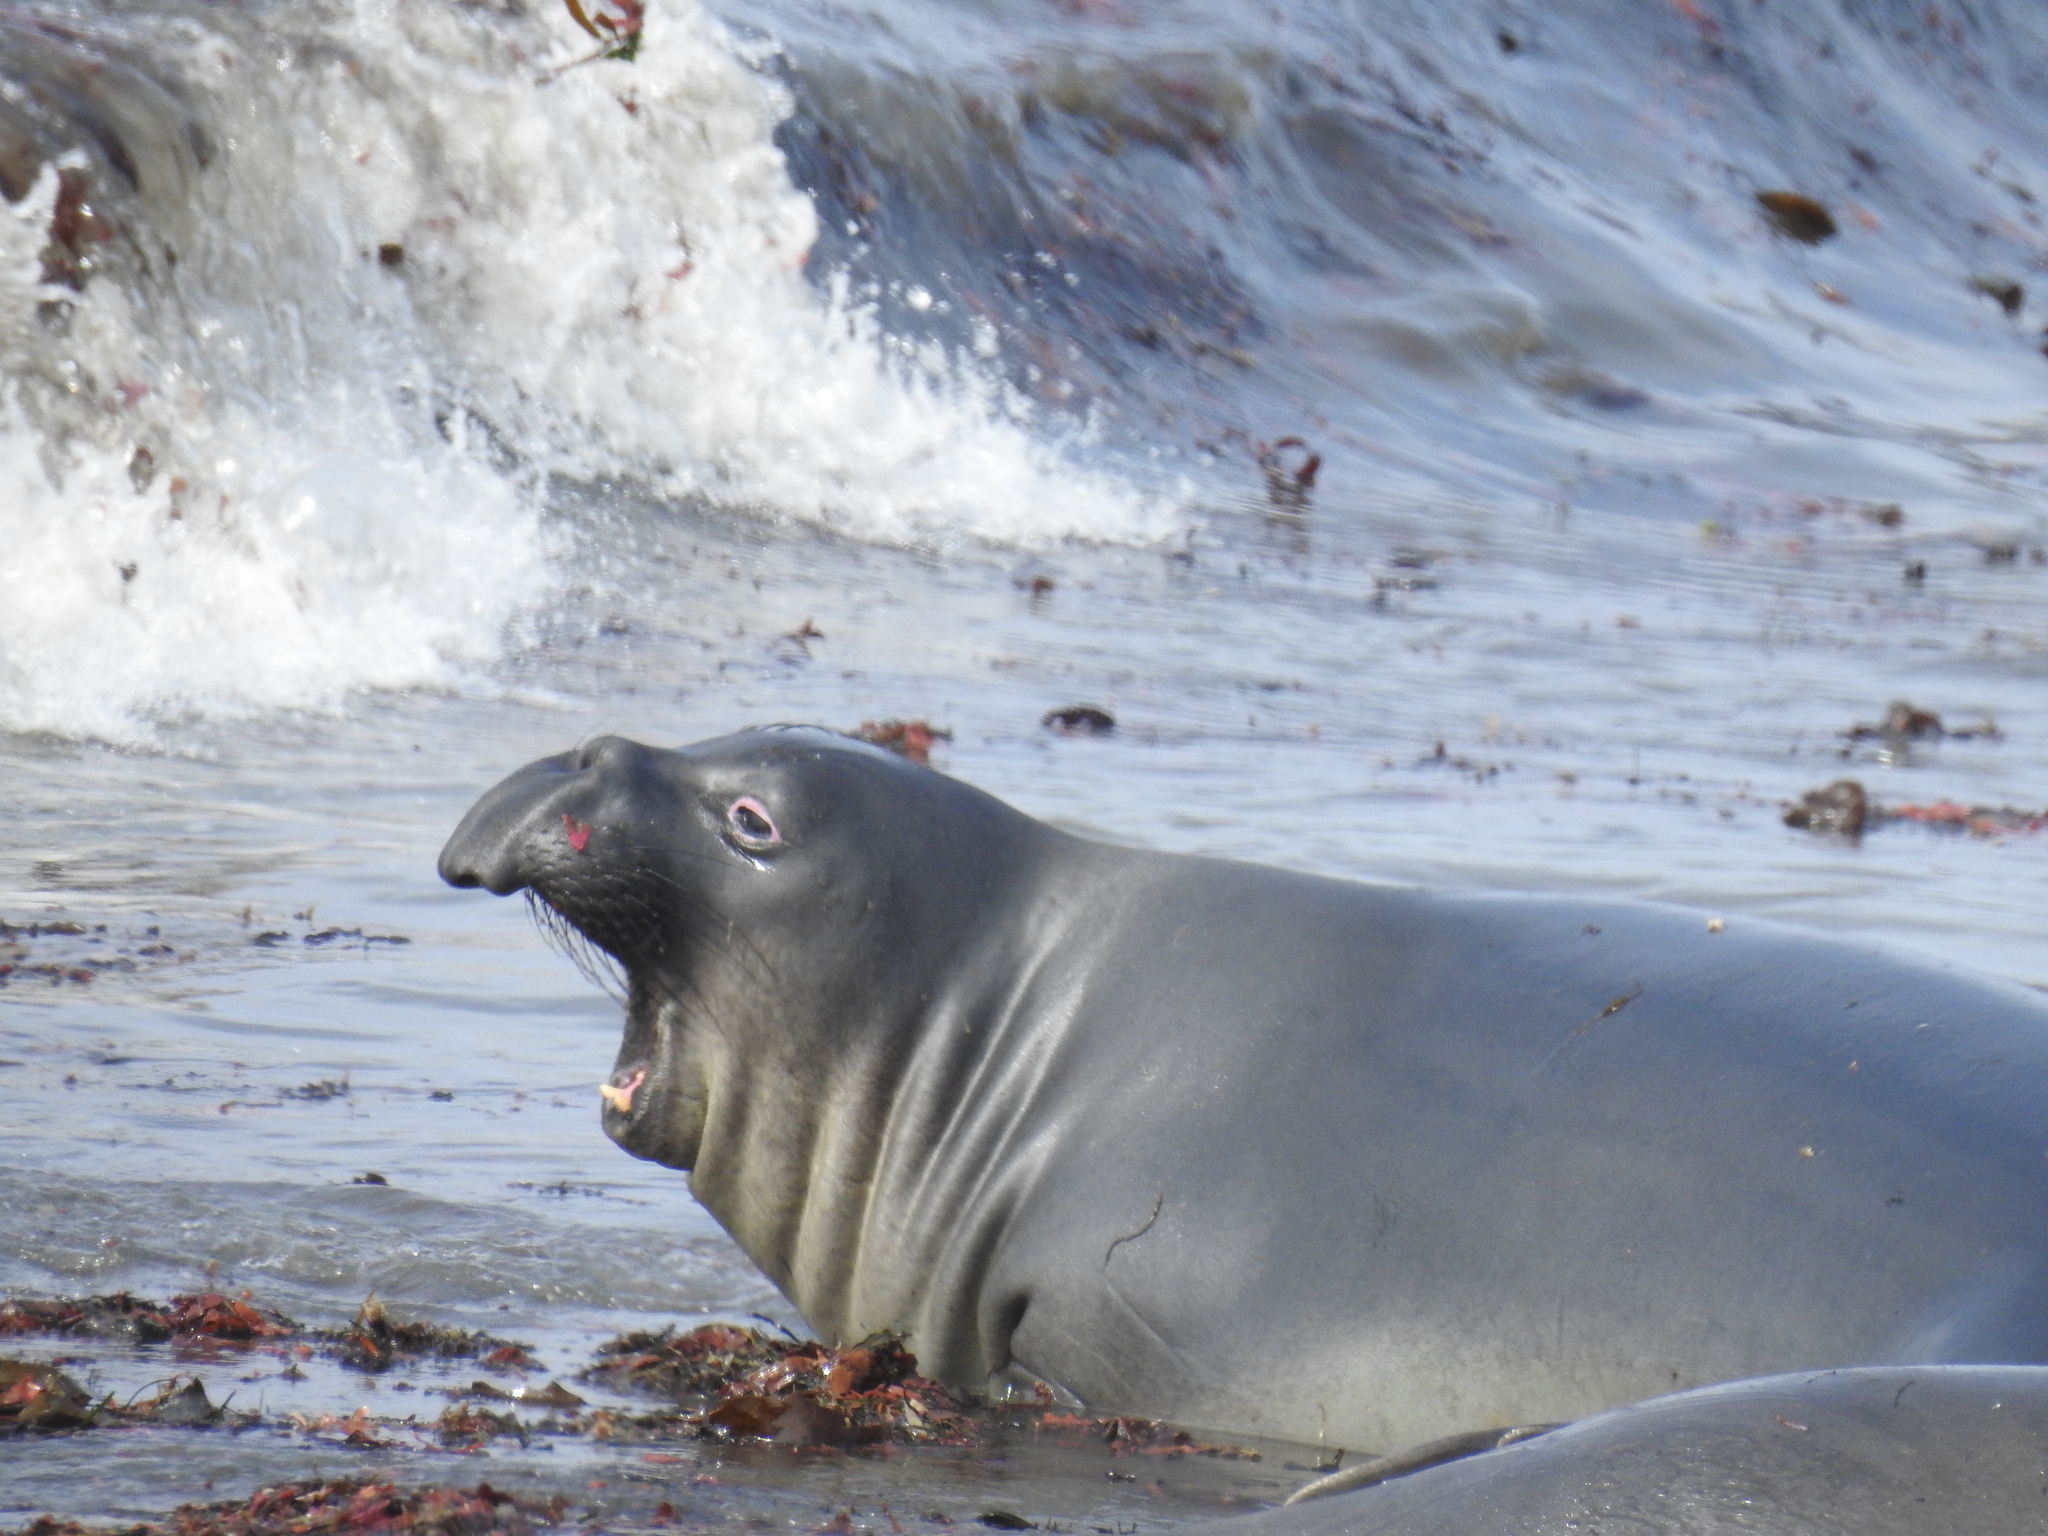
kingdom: Animalia
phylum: Chordata
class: Mammalia
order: Carnivora
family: Phocidae
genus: Mirounga
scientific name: Mirounga angustirostris
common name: Northern elephant seal
